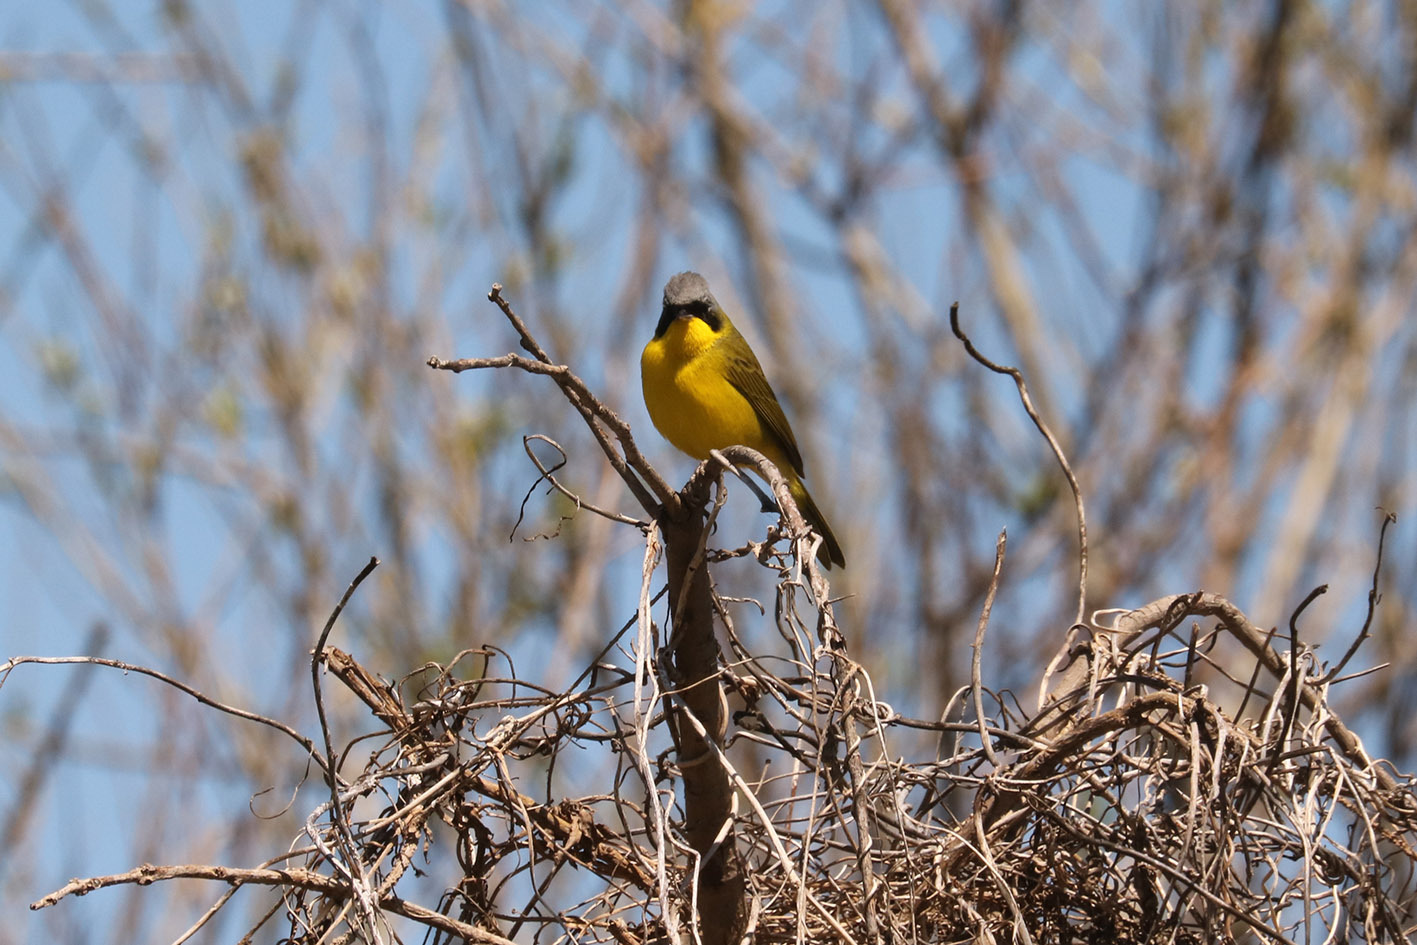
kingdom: Animalia
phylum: Chordata
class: Aves
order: Passeriformes
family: Parulidae
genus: Geothlypis
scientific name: Geothlypis velata
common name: Southern yellowthroat
